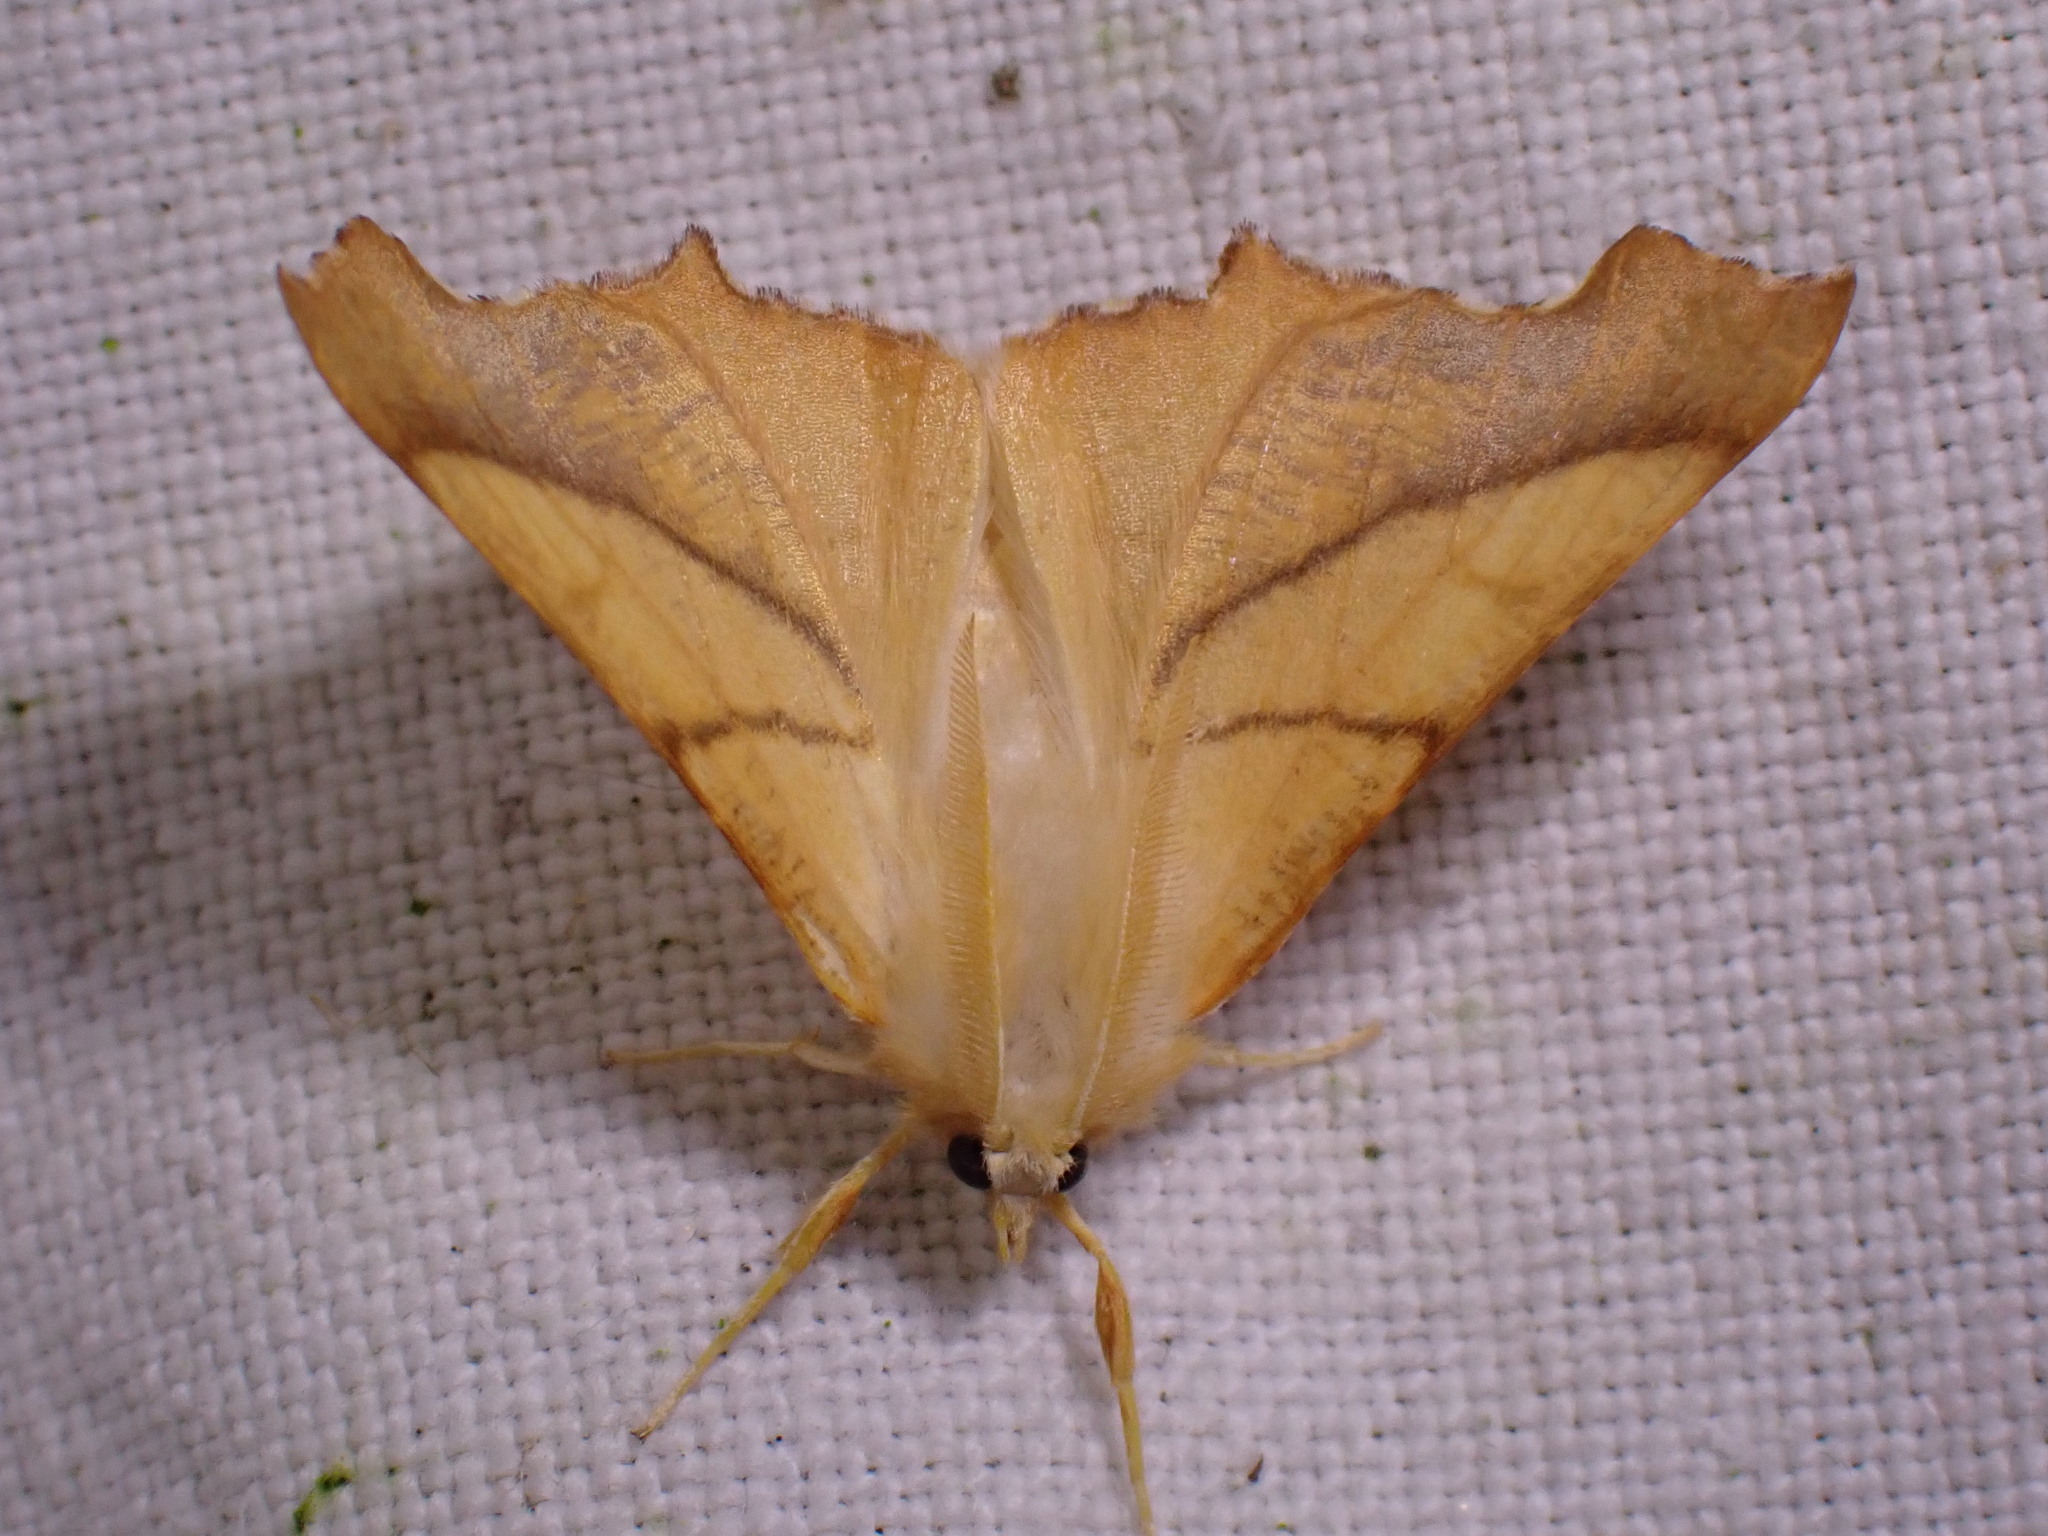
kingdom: Animalia
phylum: Arthropoda
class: Insecta
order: Lepidoptera
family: Geometridae
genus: Ennomos
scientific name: Ennomos fuscantaria
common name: Dusky thorn
